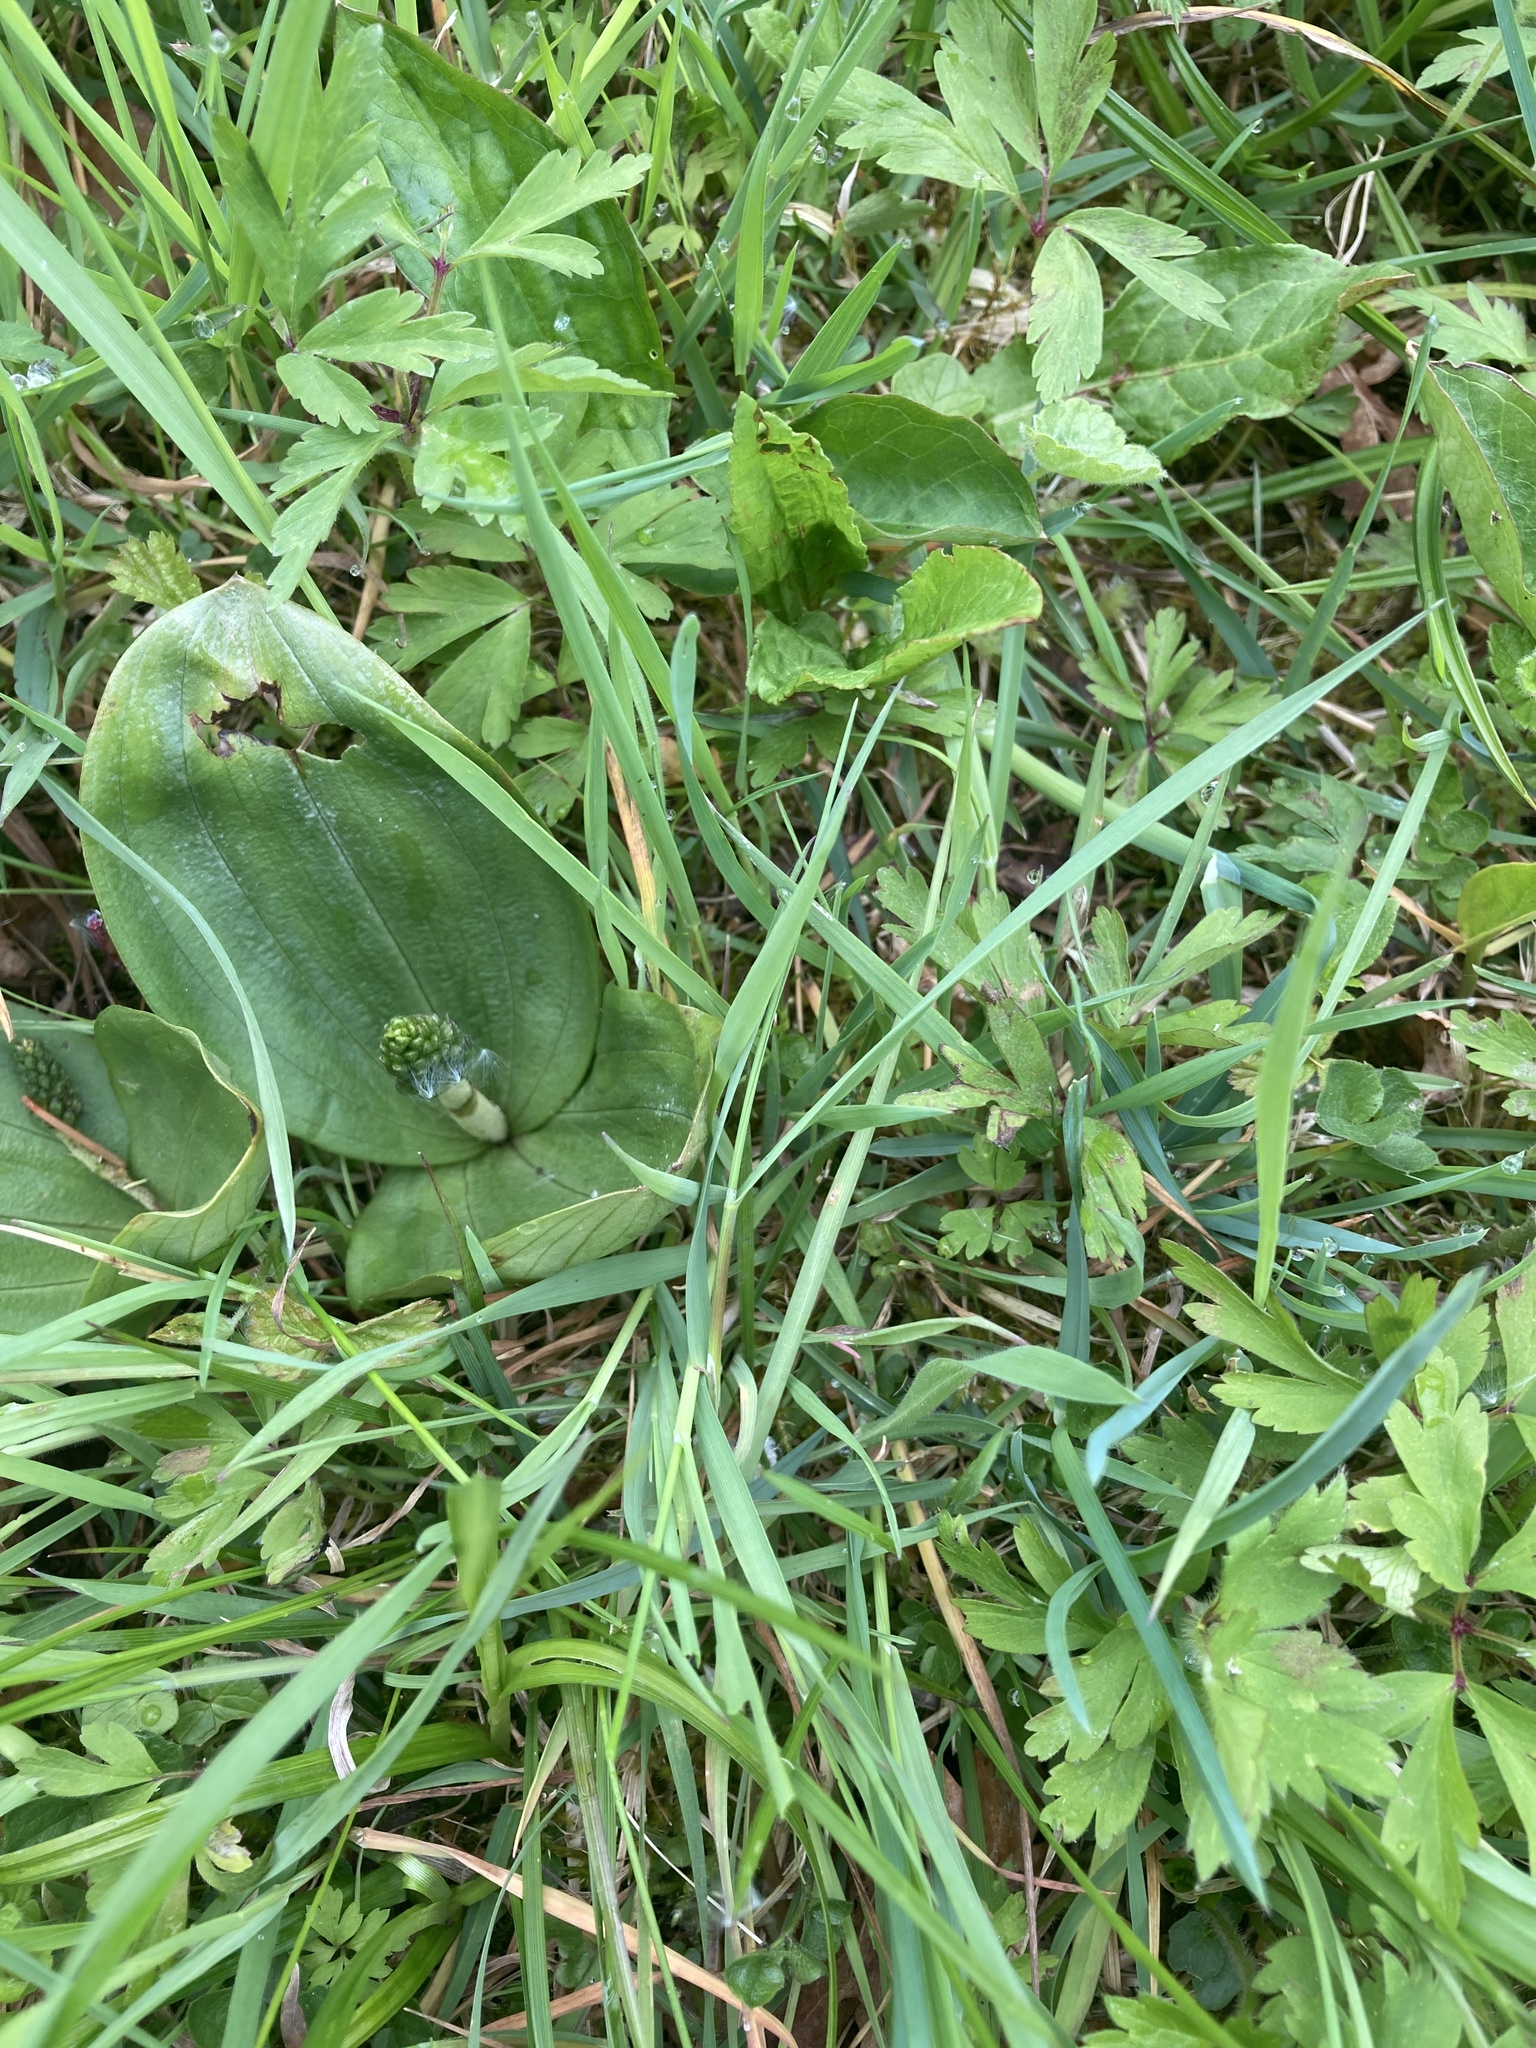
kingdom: Plantae
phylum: Tracheophyta
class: Liliopsida
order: Asparagales
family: Orchidaceae
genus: Neottia
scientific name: Neottia ovata
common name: Common twayblade
